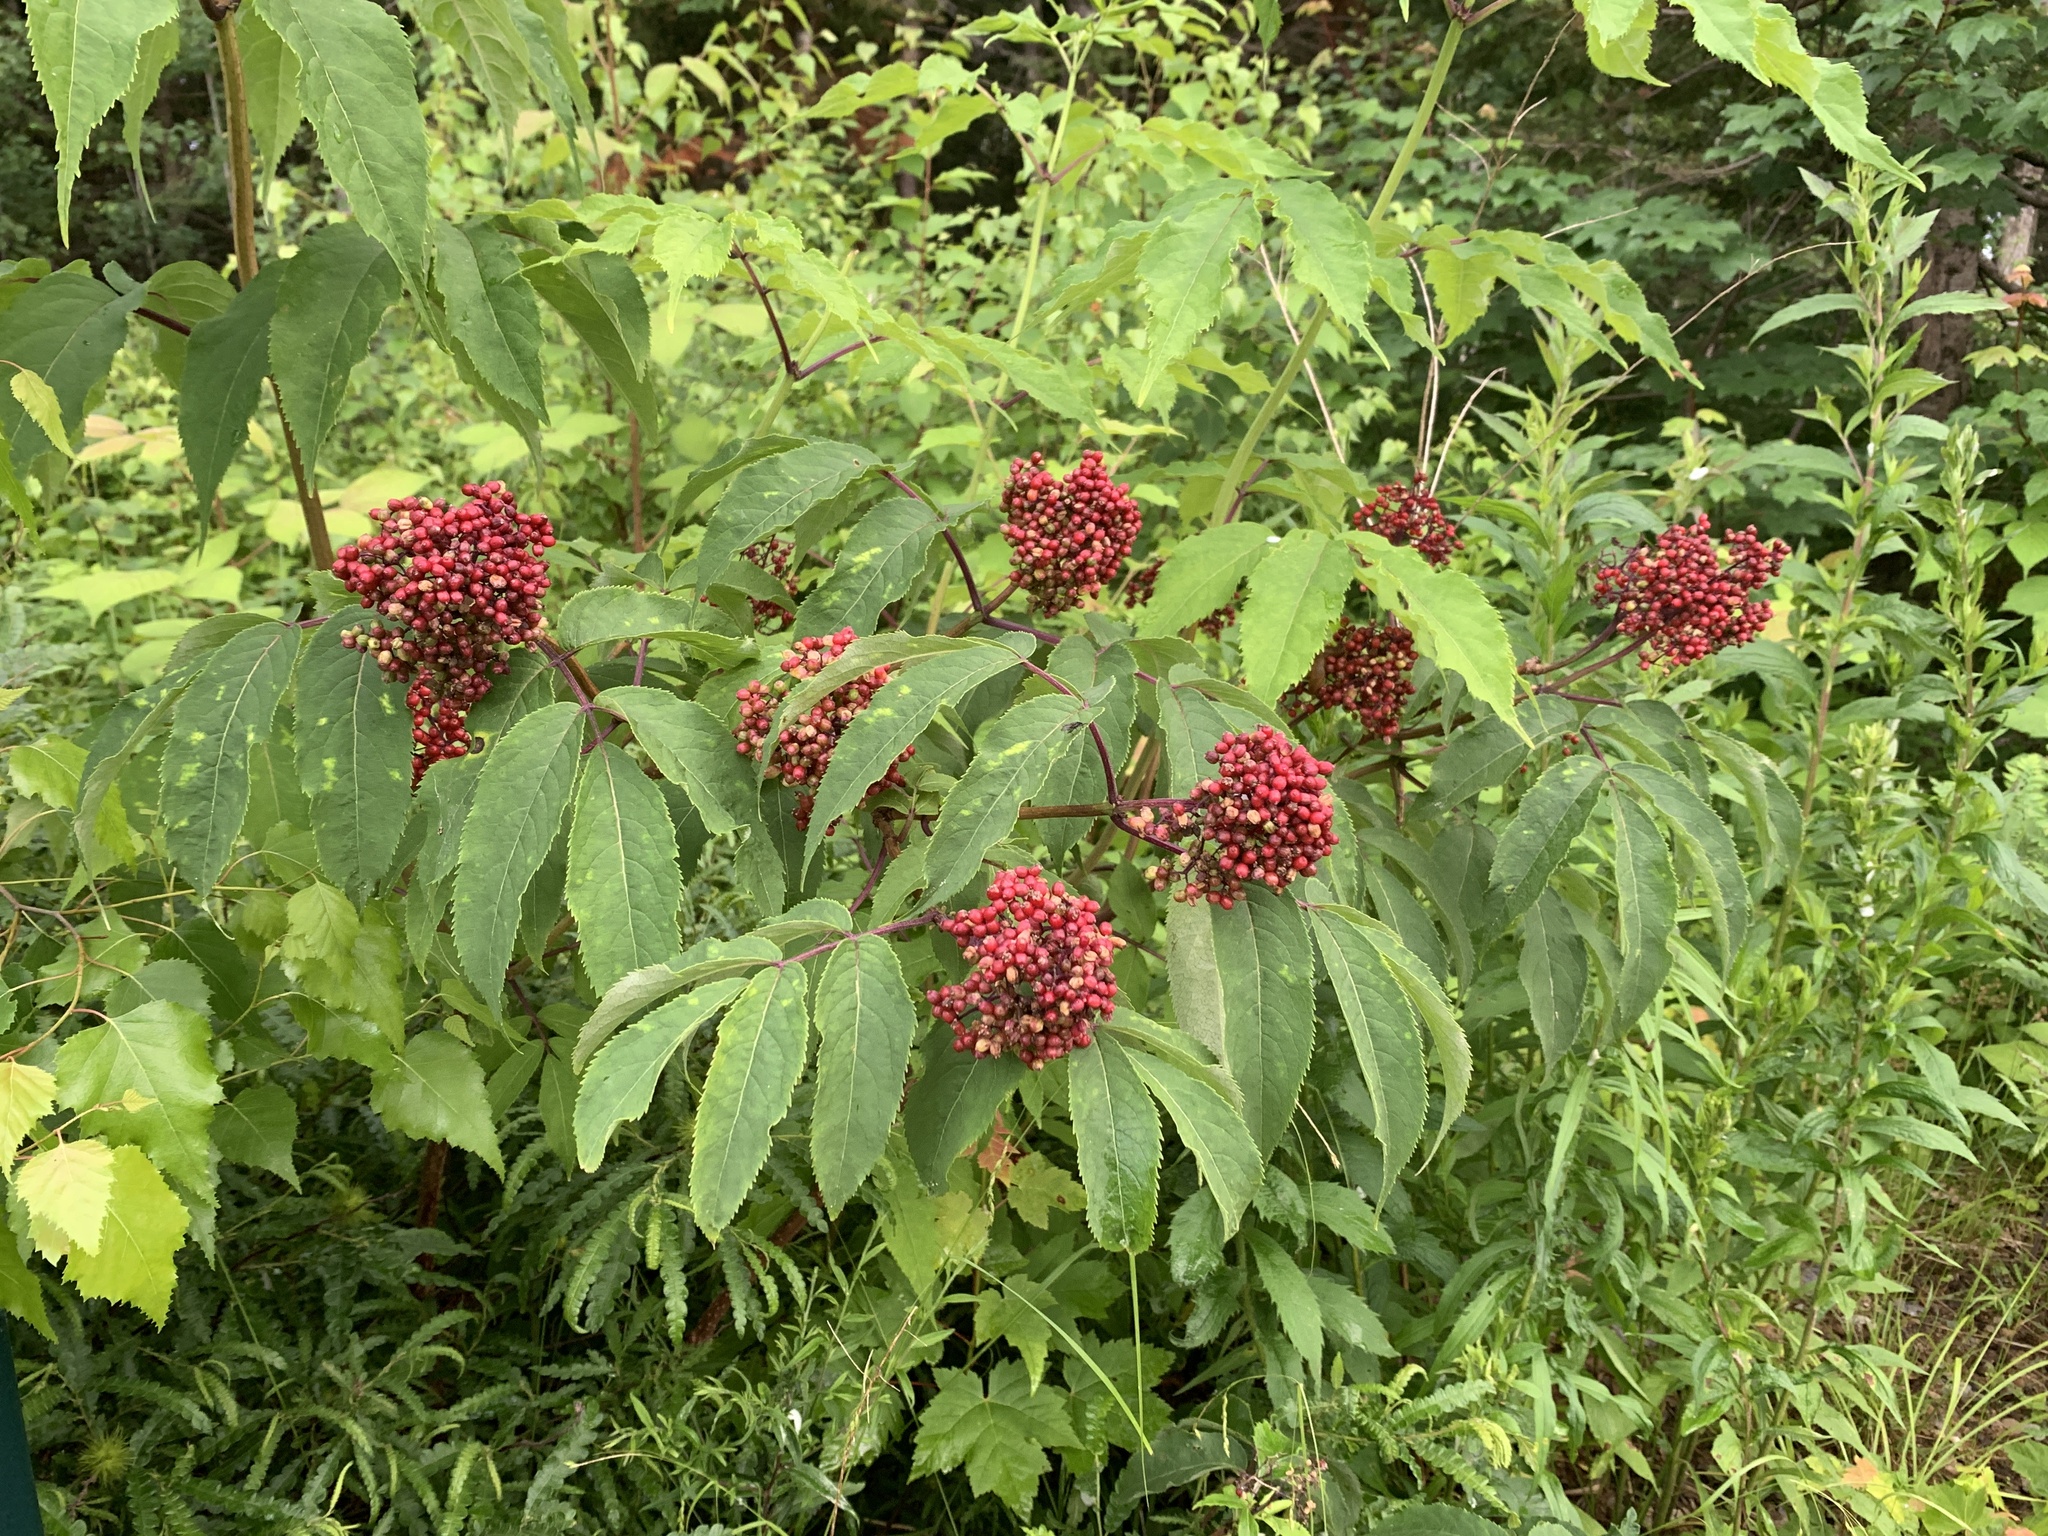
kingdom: Plantae
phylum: Tracheophyta
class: Magnoliopsida
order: Dipsacales
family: Viburnaceae
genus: Sambucus
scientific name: Sambucus racemosa
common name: Red-berried elder
